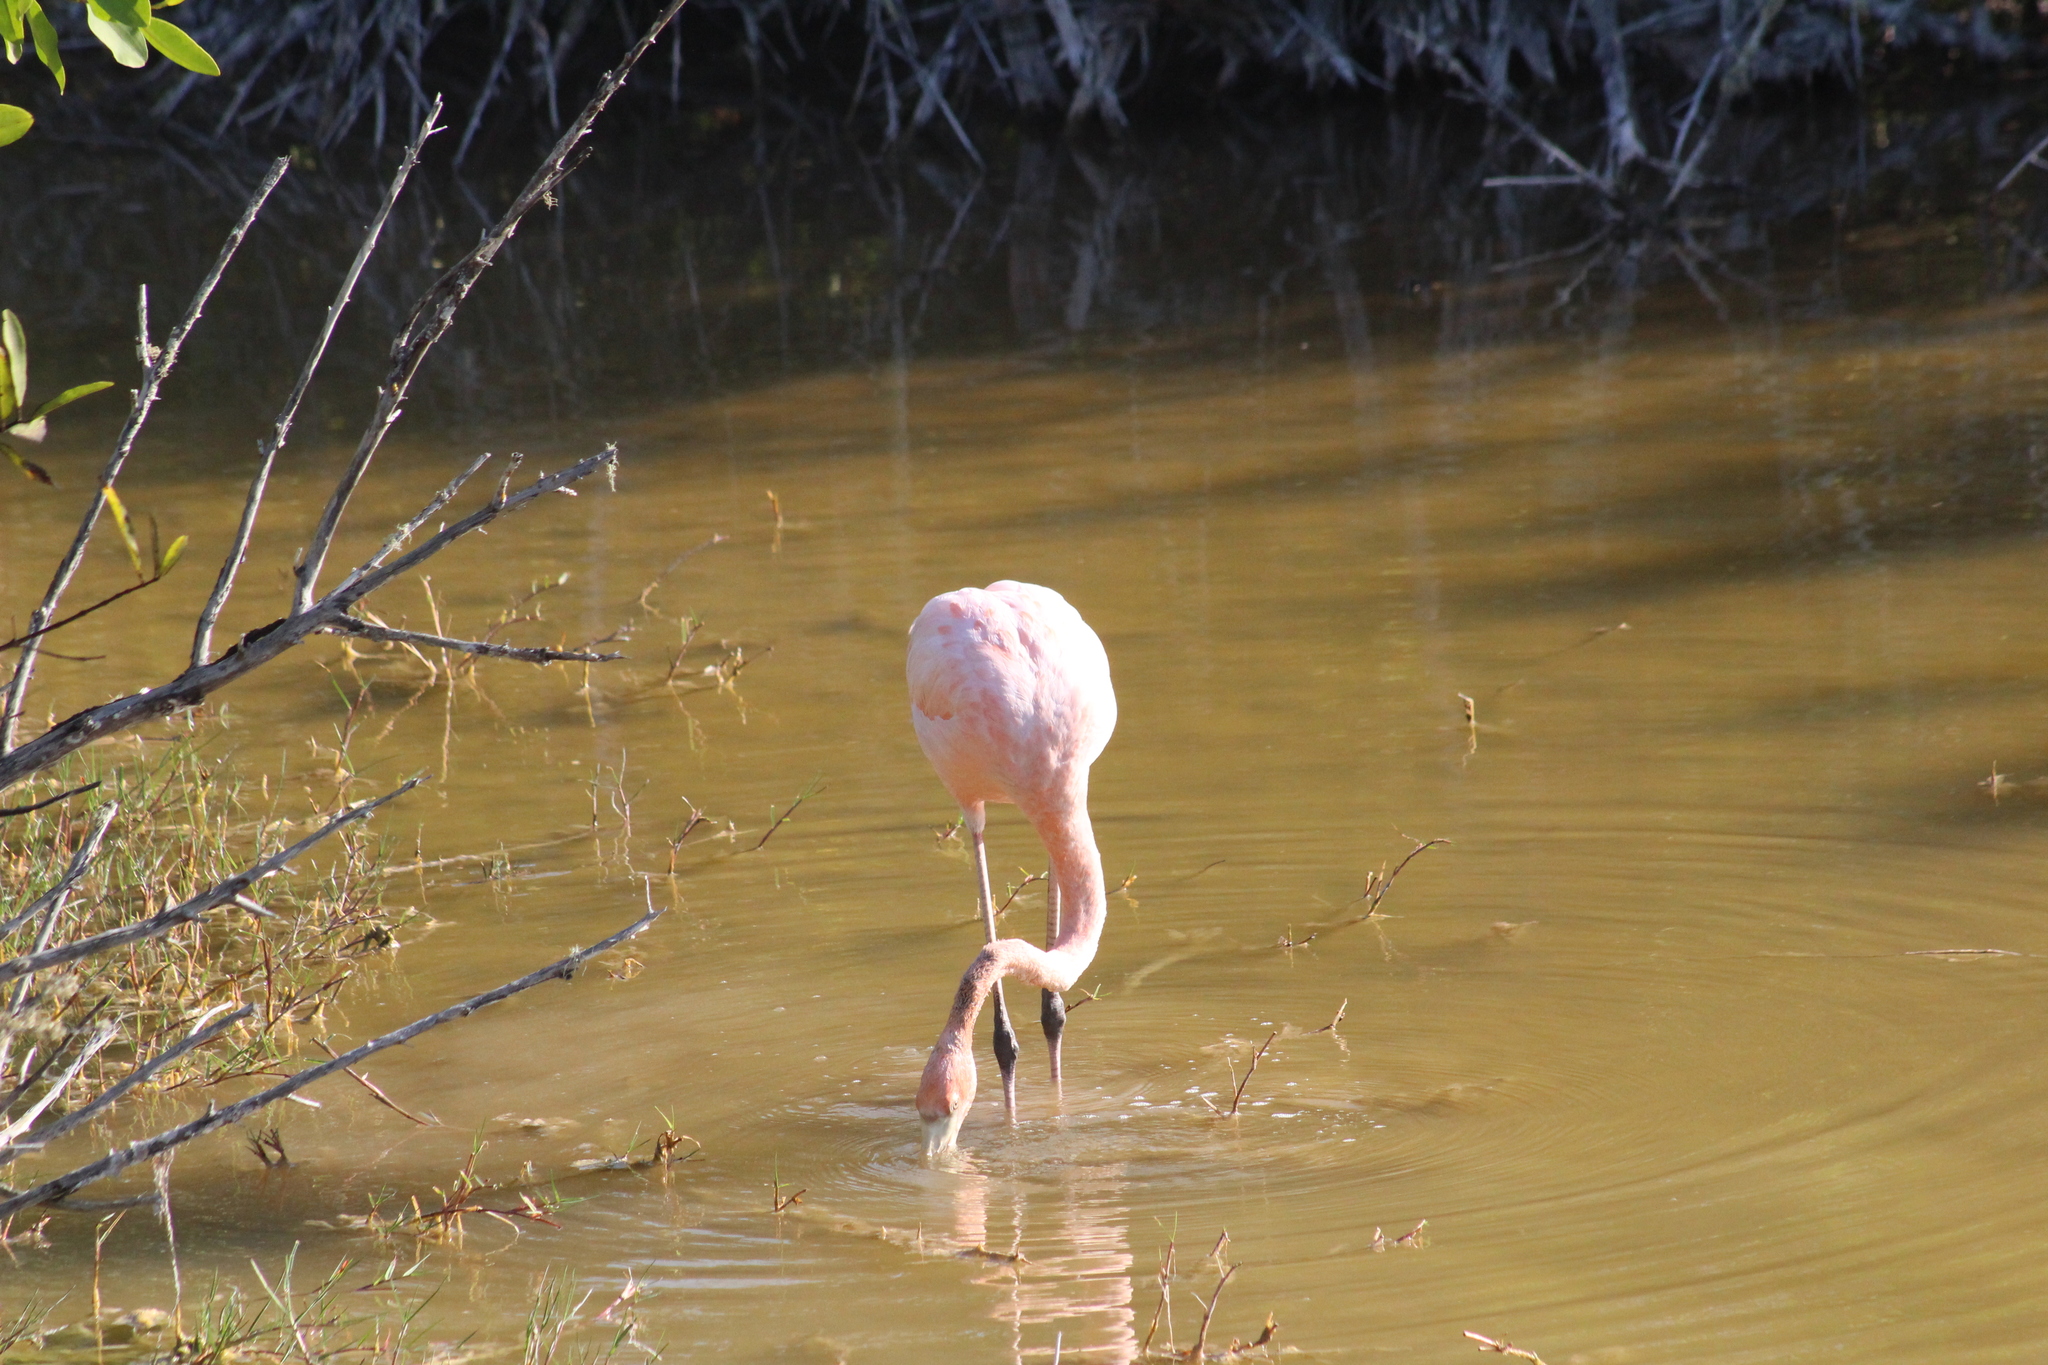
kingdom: Animalia
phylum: Chordata
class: Aves
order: Phoenicopteriformes
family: Phoenicopteridae
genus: Phoenicopterus
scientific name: Phoenicopterus ruber
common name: American flamingo
